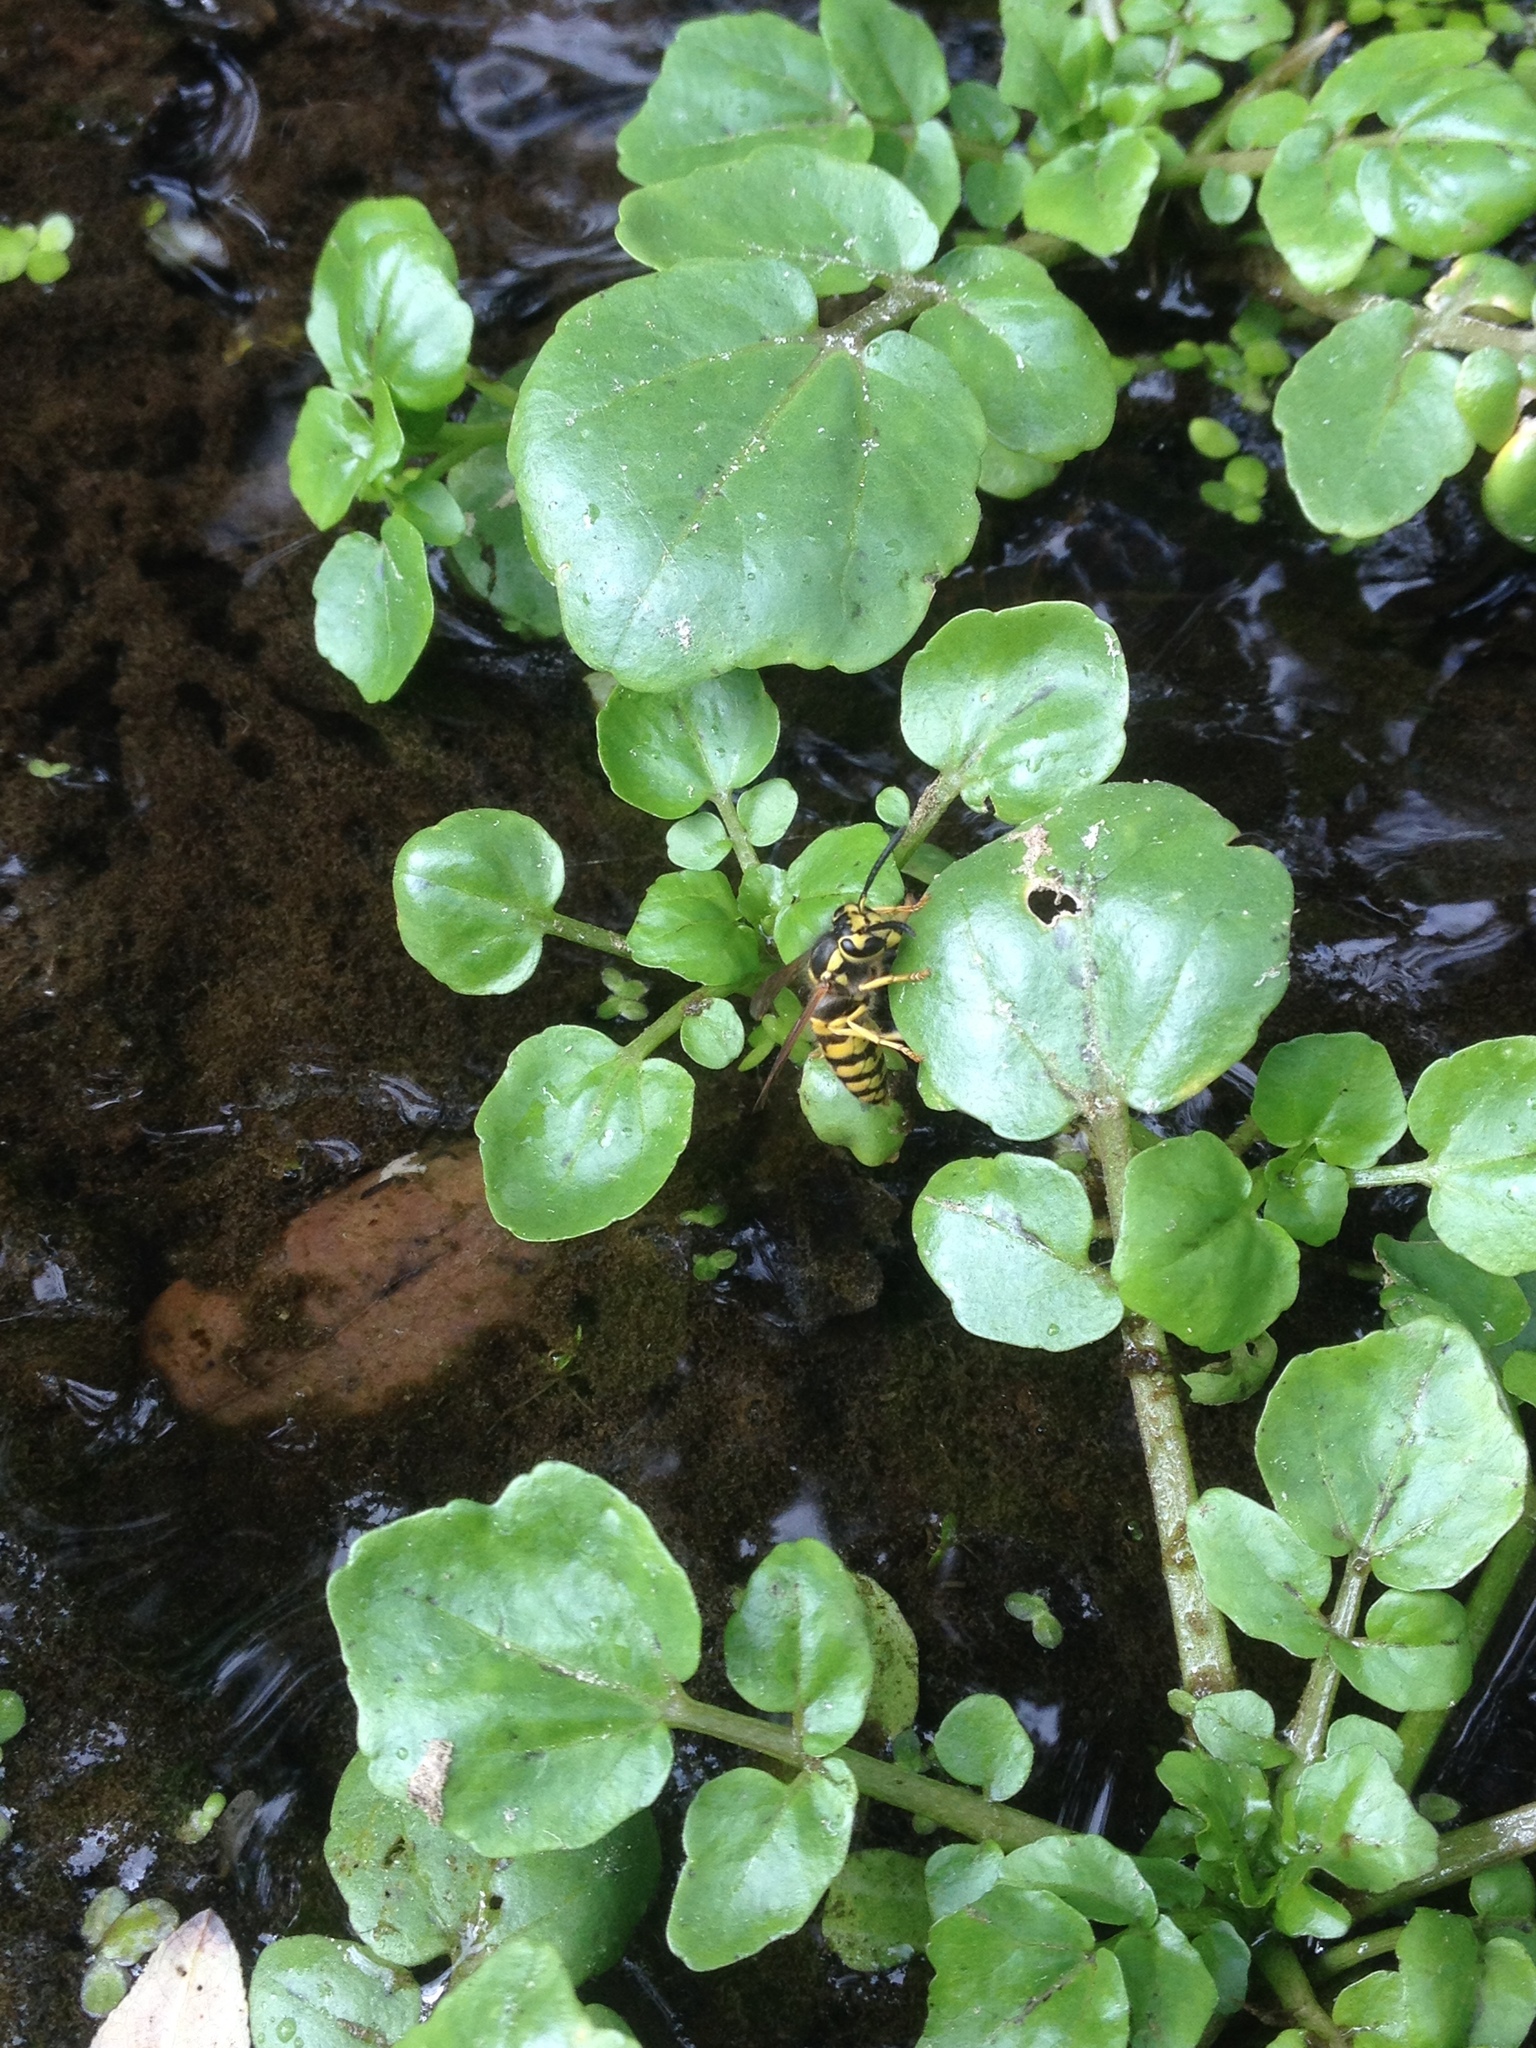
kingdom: Plantae
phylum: Tracheophyta
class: Magnoliopsida
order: Brassicales
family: Brassicaceae
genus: Nasturtium
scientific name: Nasturtium officinale
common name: Watercress
